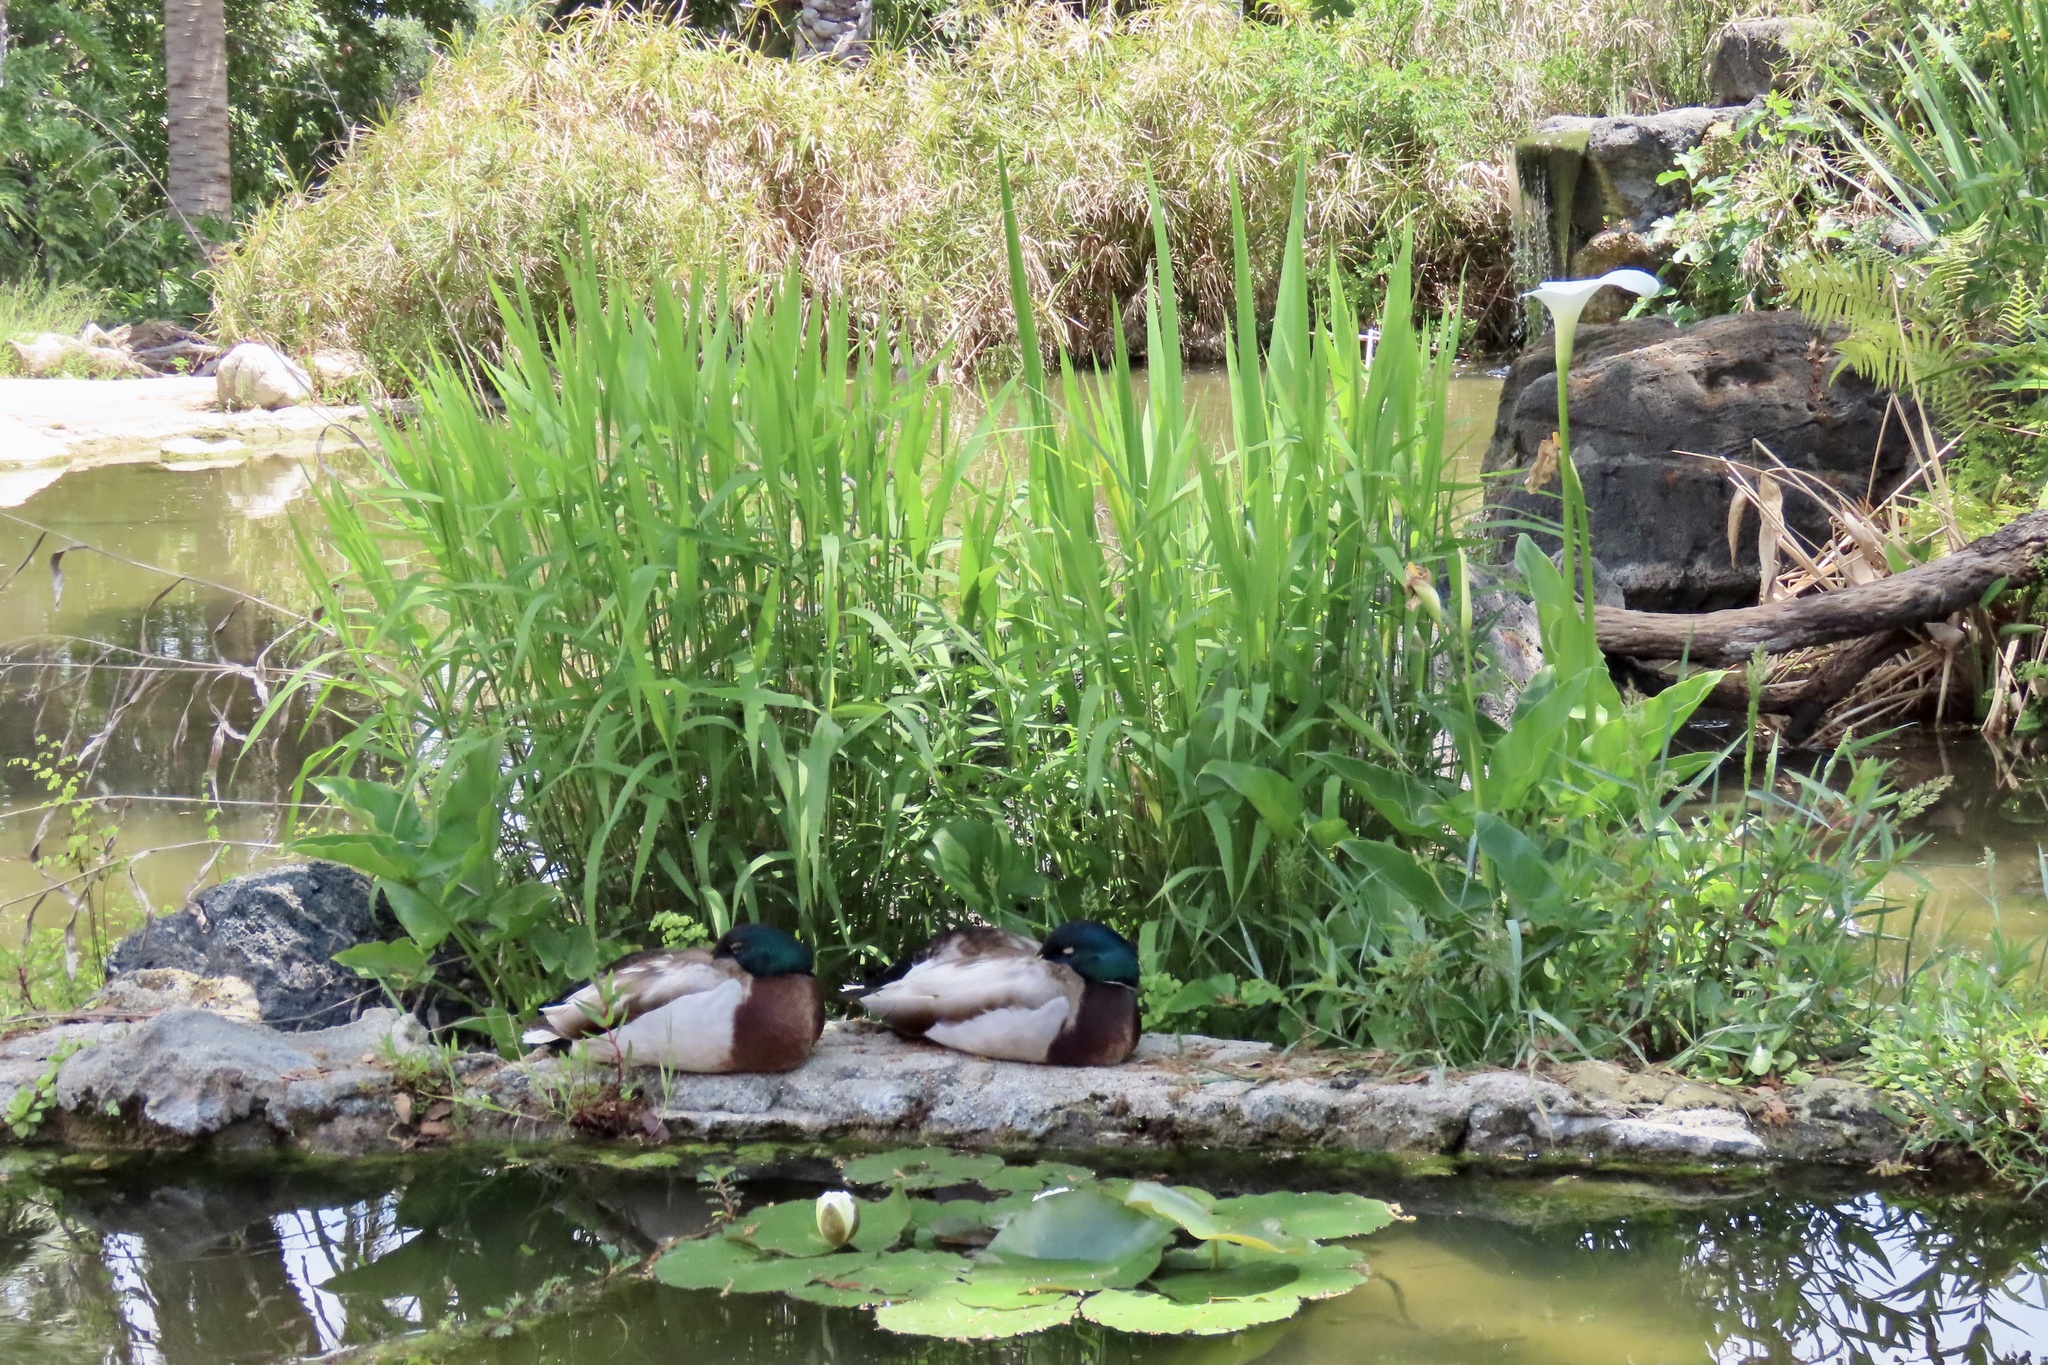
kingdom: Animalia
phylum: Chordata
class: Aves
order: Anseriformes
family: Anatidae
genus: Anas
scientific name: Anas platyrhynchos
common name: Mallard
